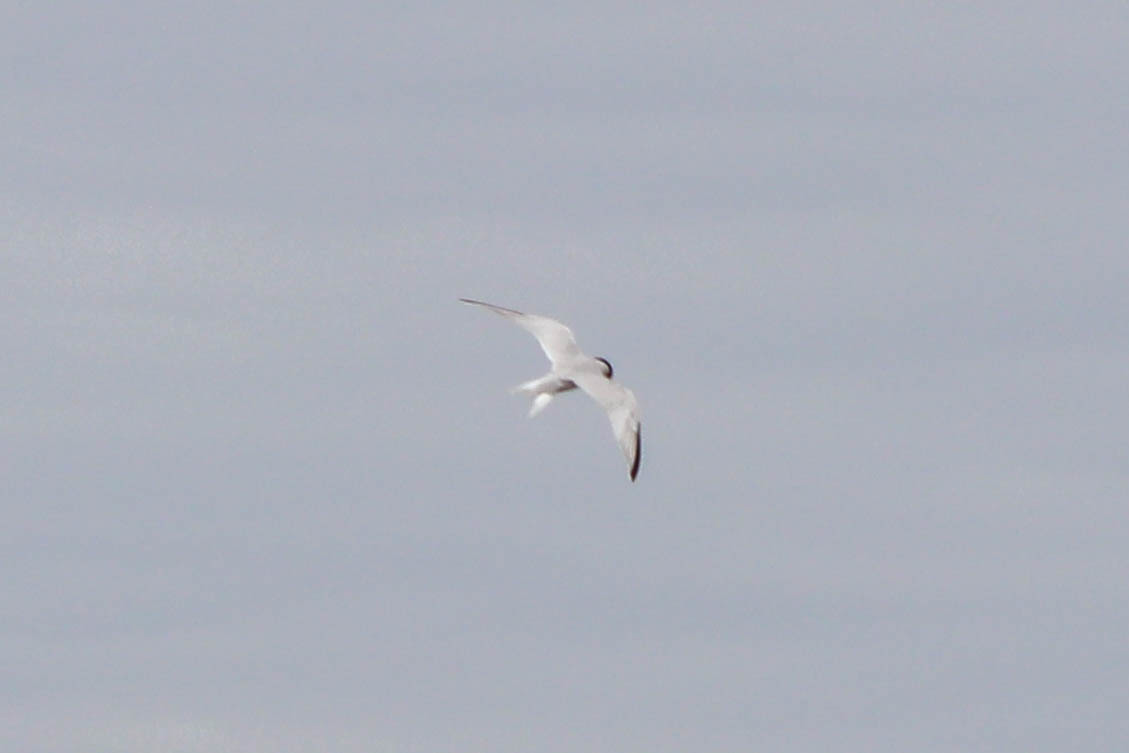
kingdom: Animalia
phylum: Chordata
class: Aves
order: Charadriiformes
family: Laridae
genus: Sternula
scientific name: Sternula antillarum
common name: Least tern
